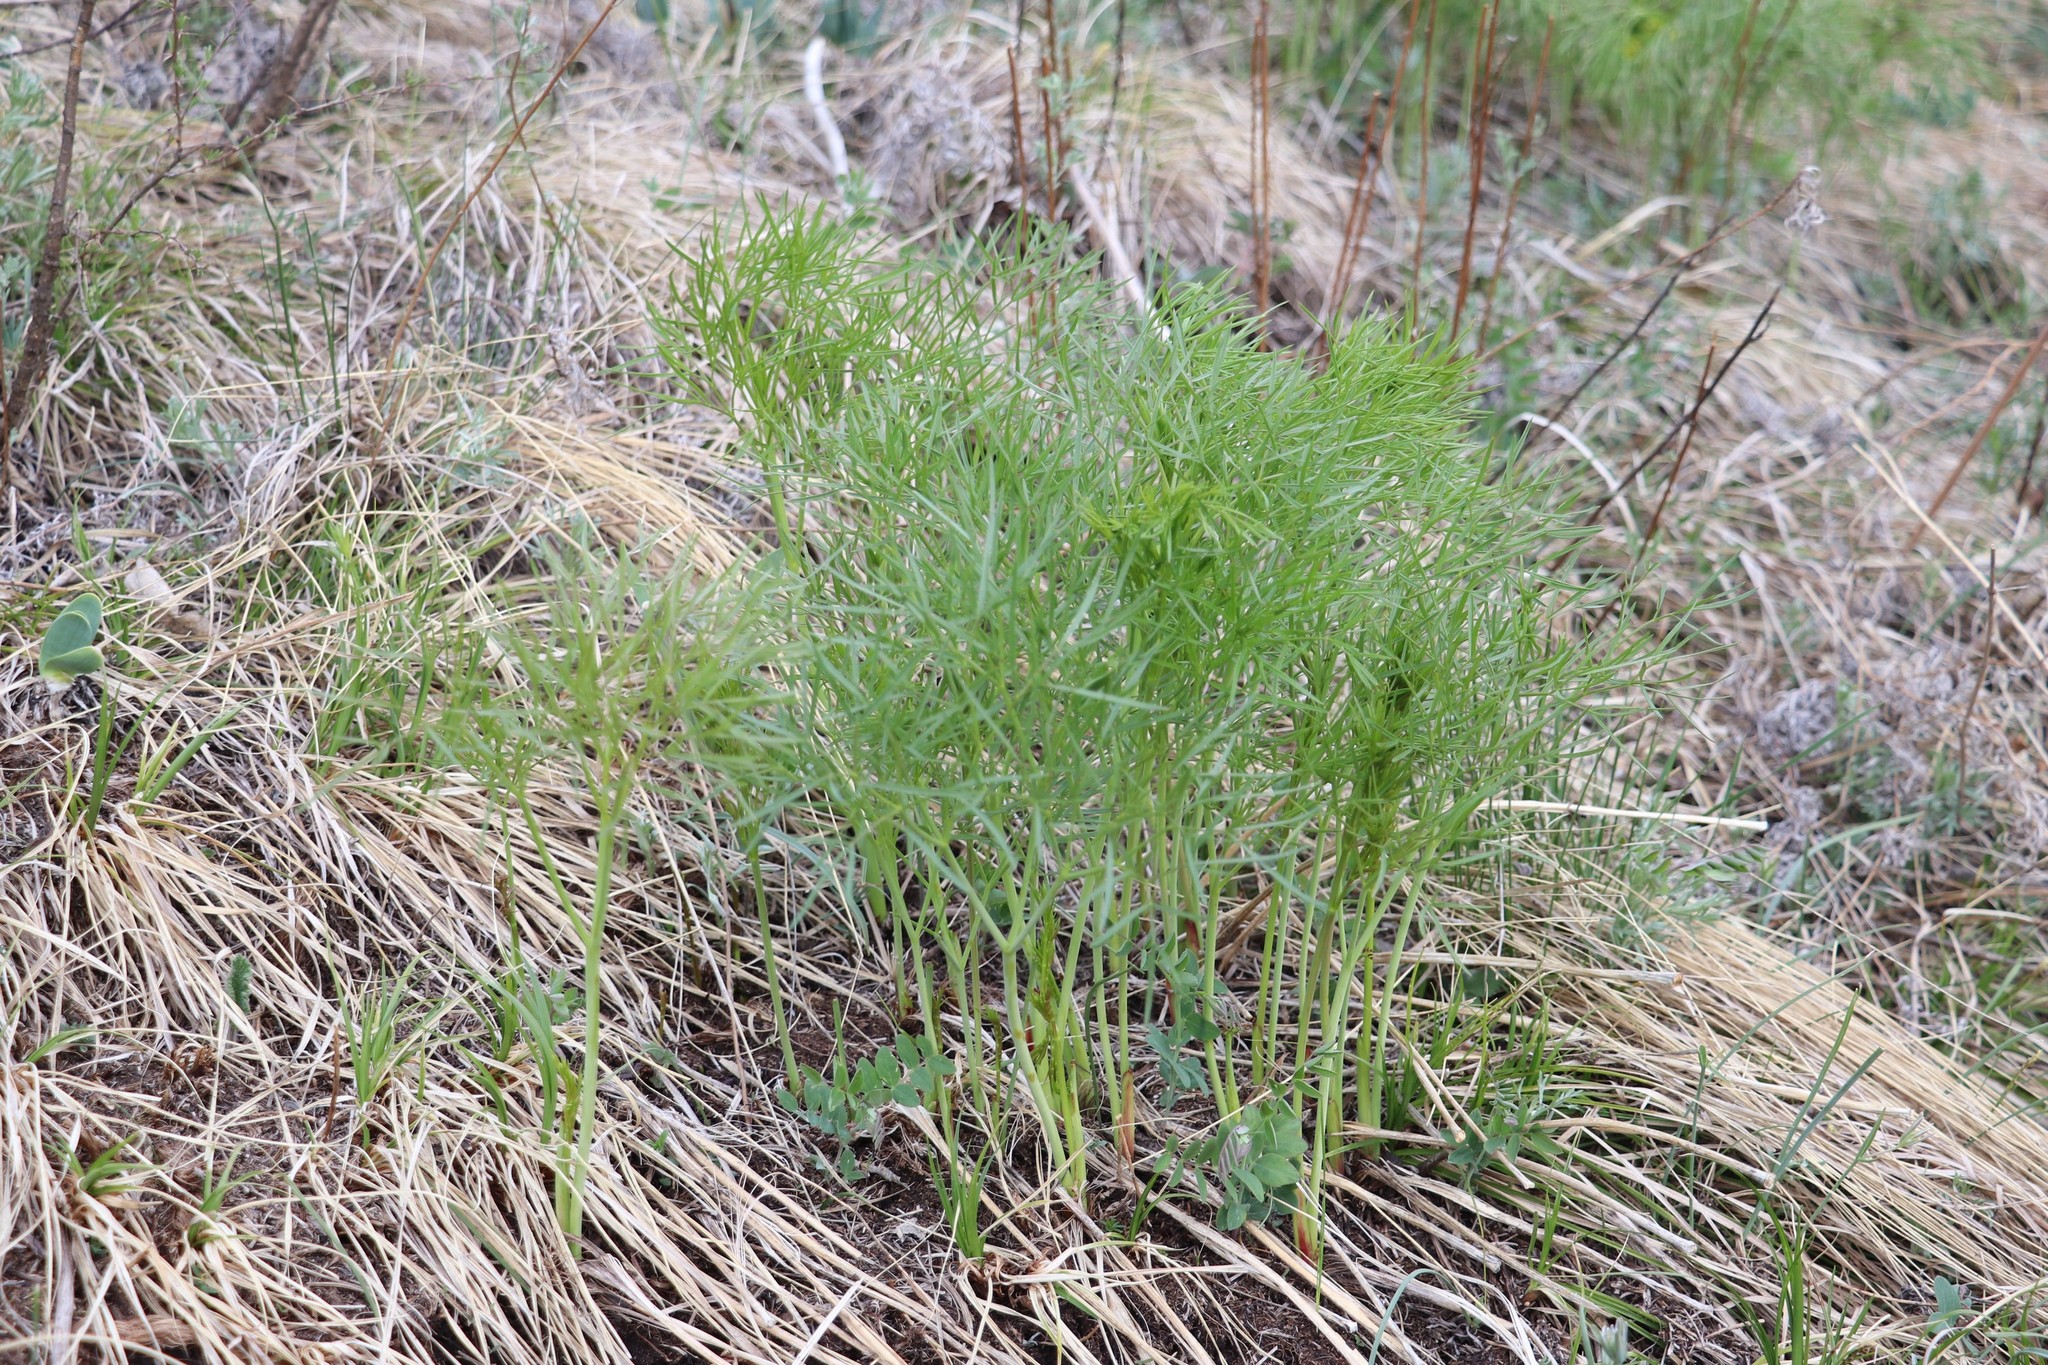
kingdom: Plantae
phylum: Tracheophyta
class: Magnoliopsida
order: Apiales
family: Apiaceae
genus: Peucedanum
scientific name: Peucedanum morisonii
